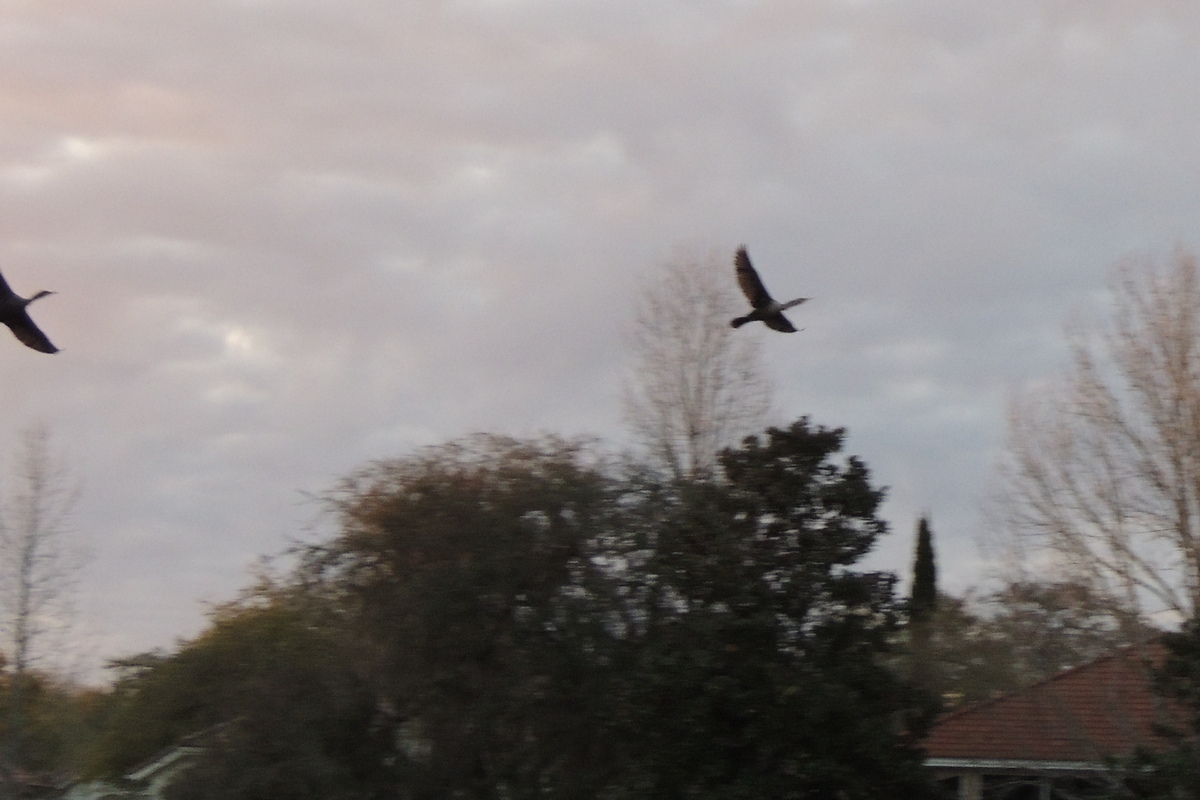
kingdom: Animalia
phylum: Chordata
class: Aves
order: Suliformes
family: Anhingidae
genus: Anhinga
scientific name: Anhinga anhinga
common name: Anhinga
